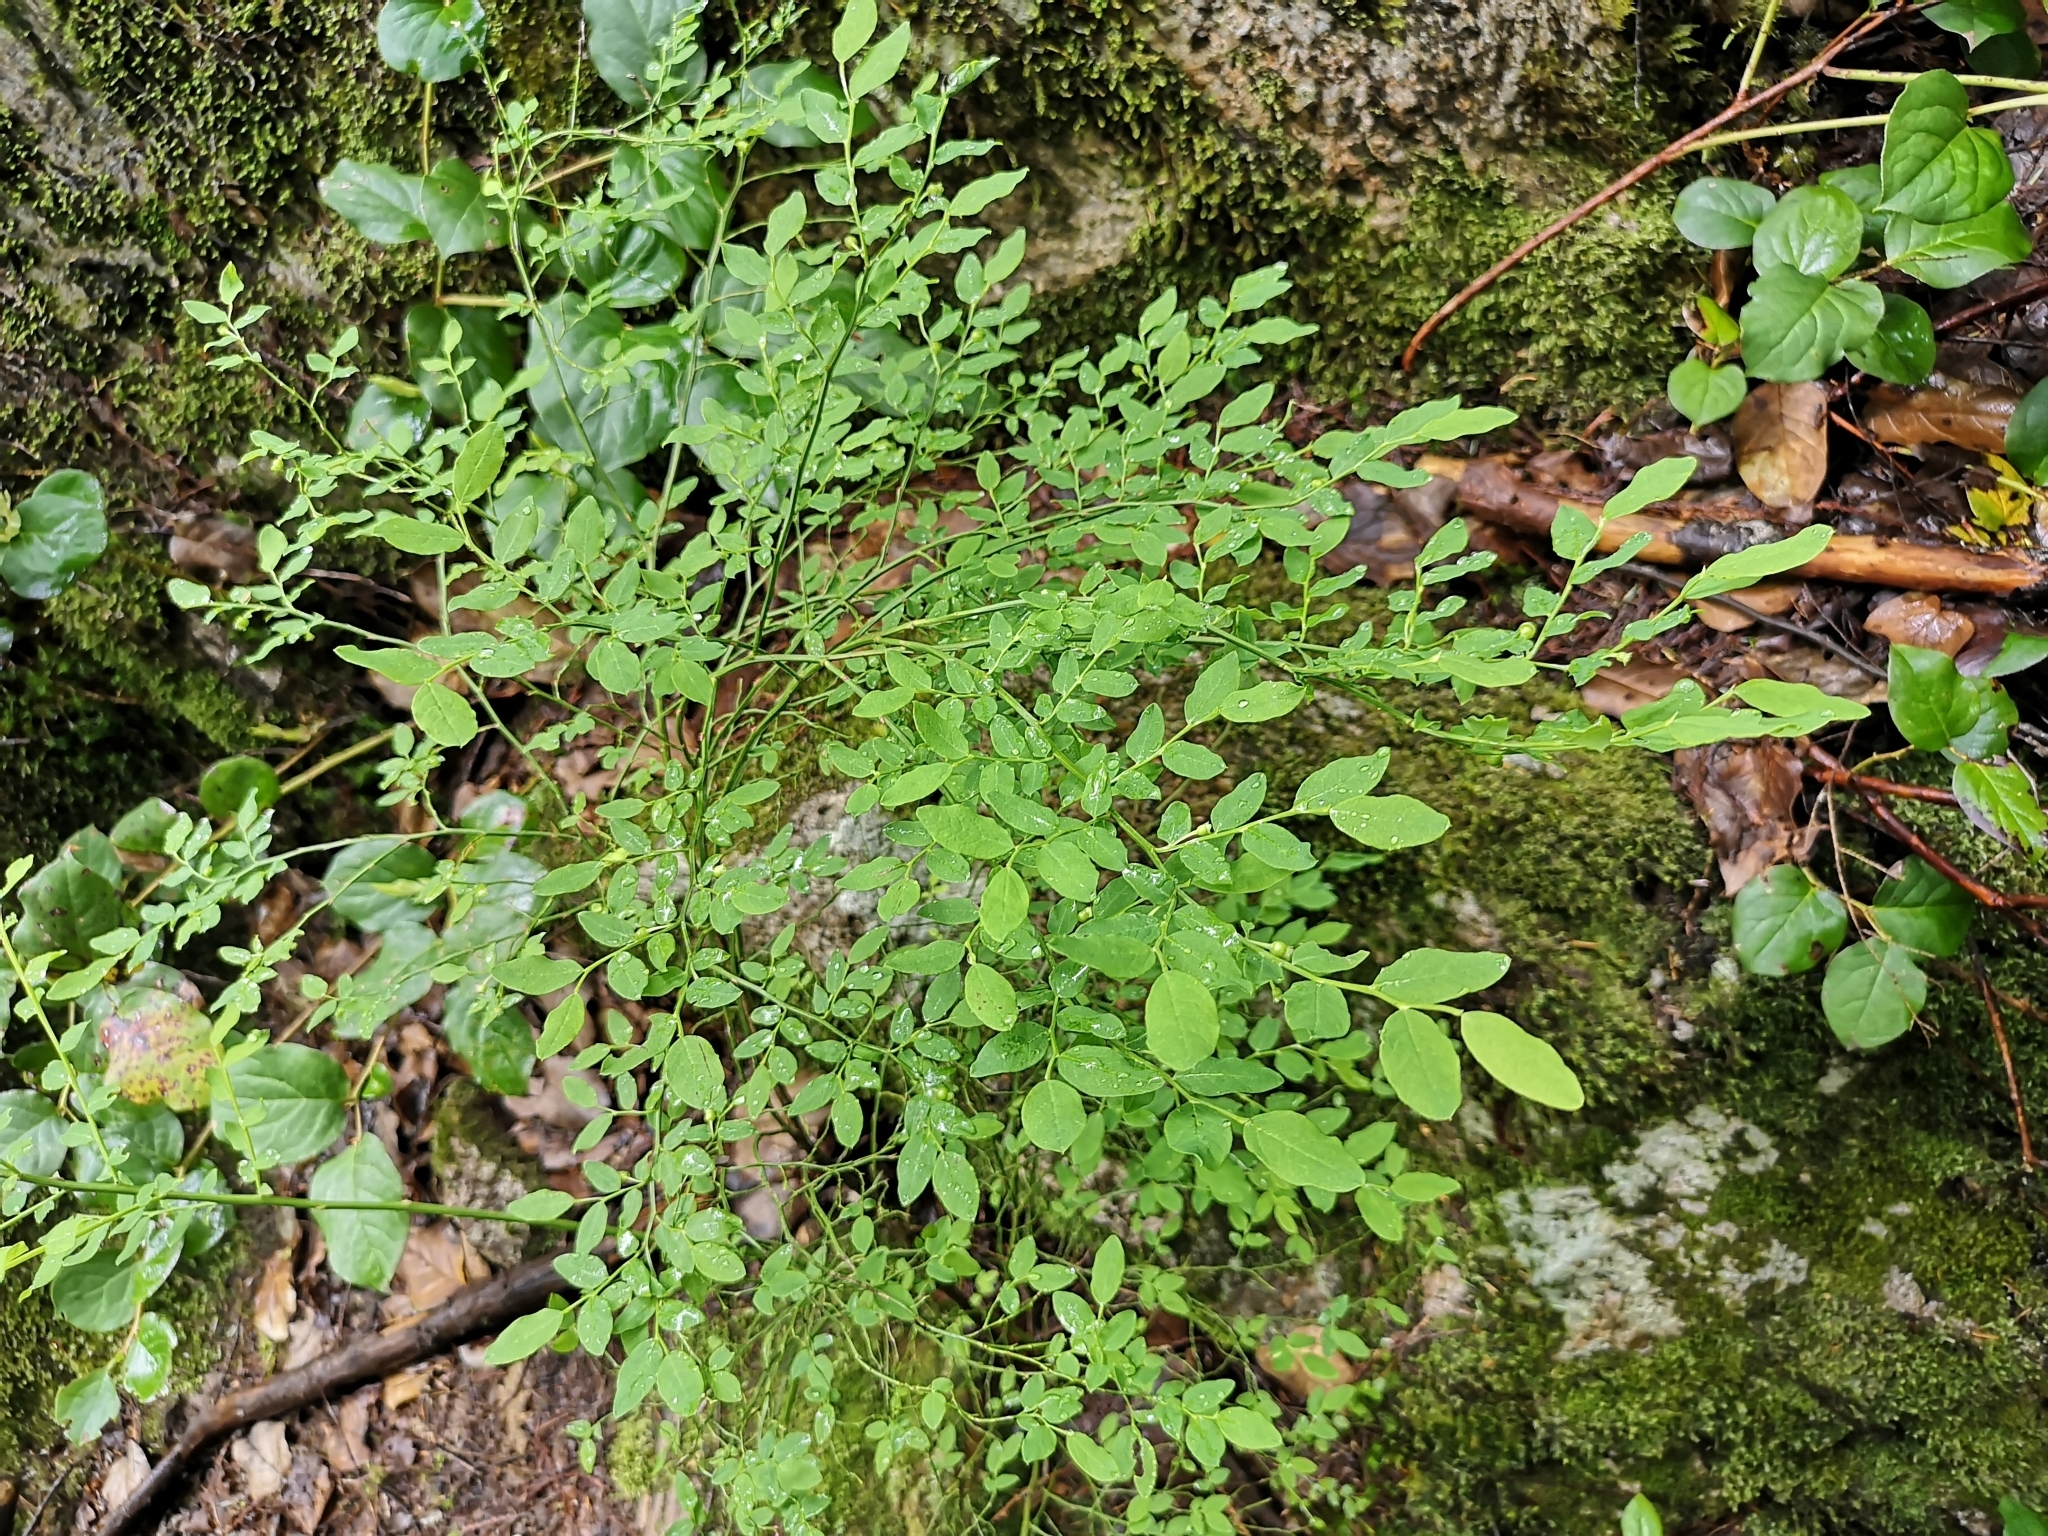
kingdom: Plantae
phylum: Tracheophyta
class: Magnoliopsida
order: Ericales
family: Ericaceae
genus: Vaccinium
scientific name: Vaccinium parvifolium
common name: Red-huckleberry
